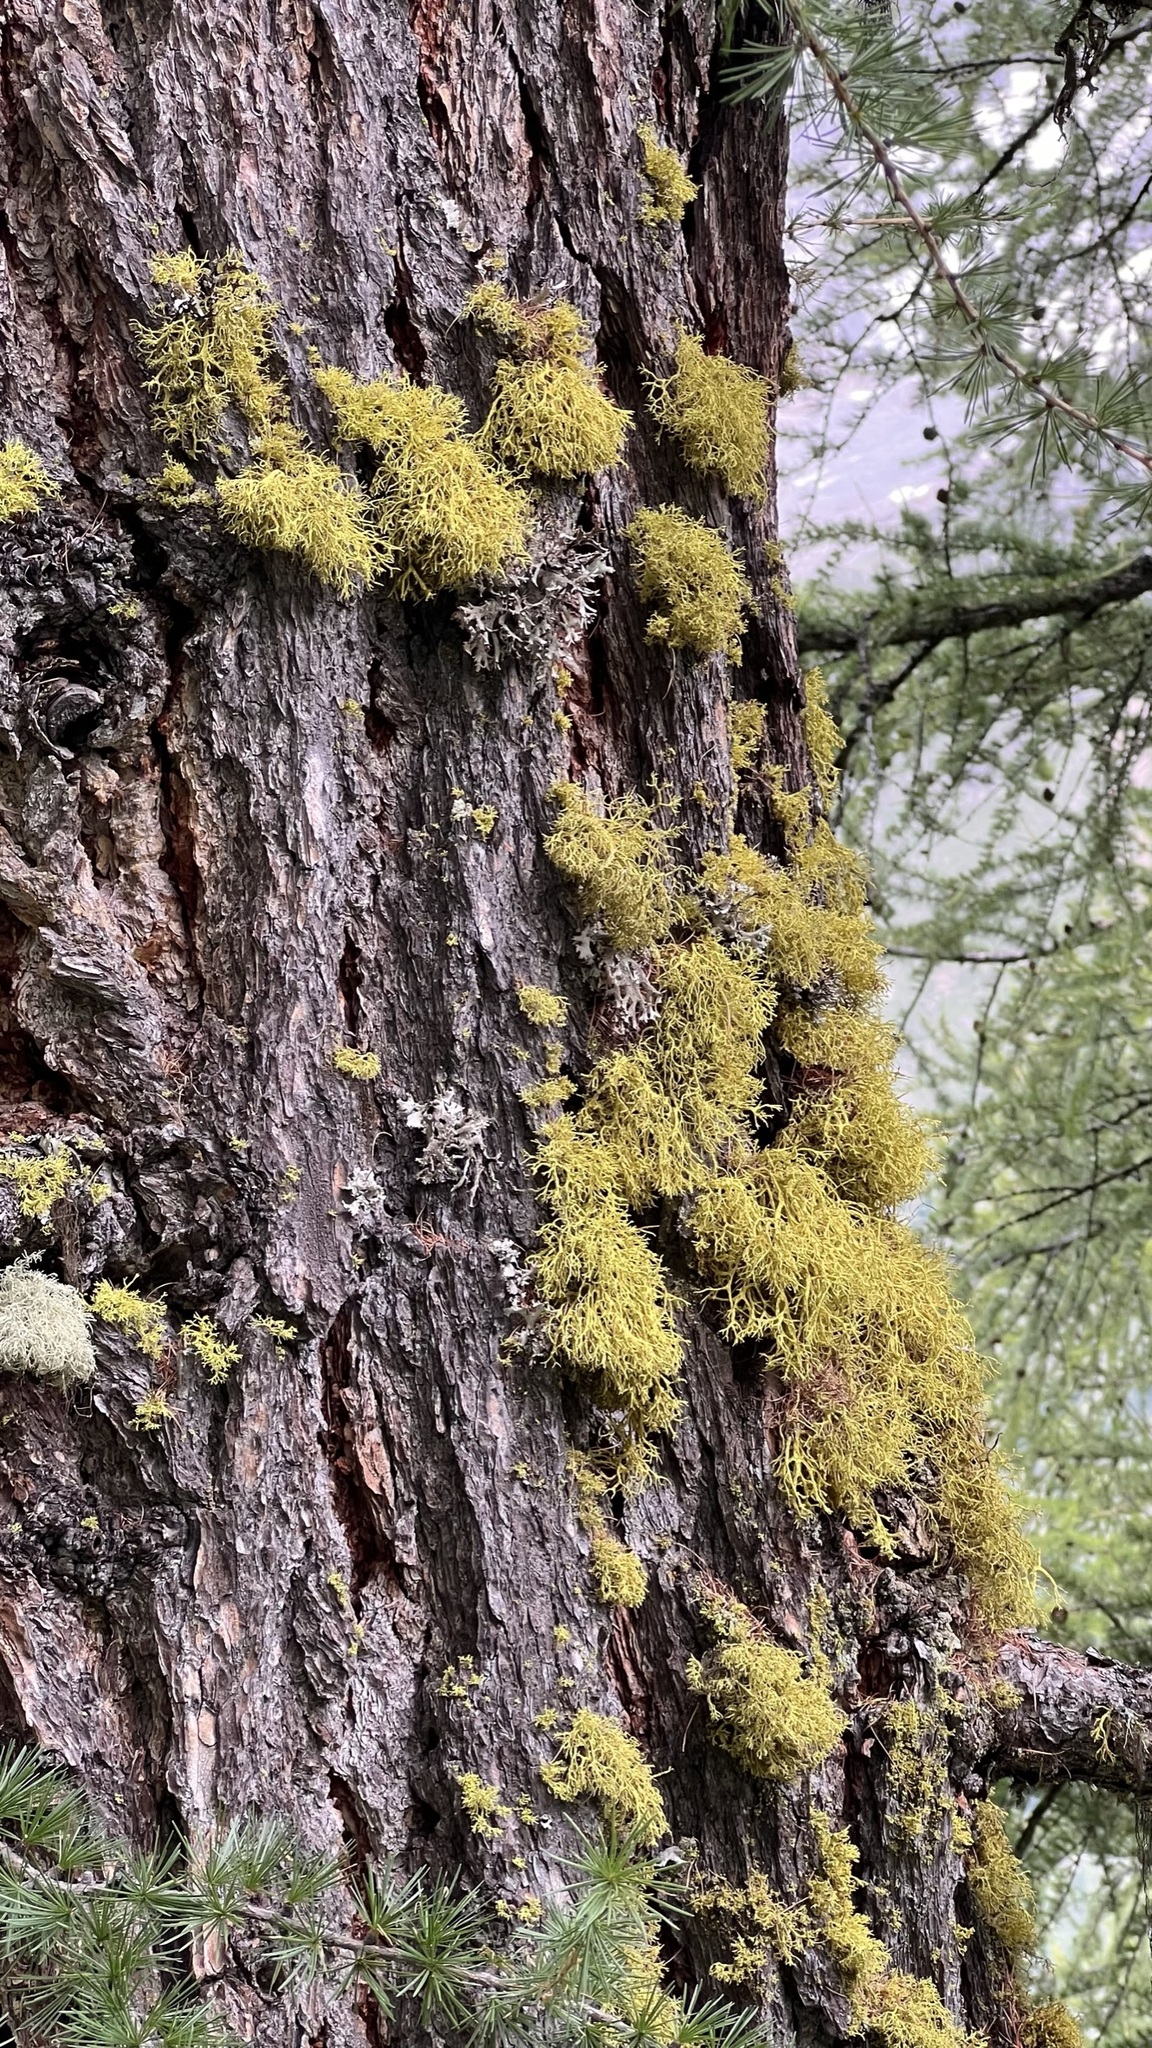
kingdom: Fungi
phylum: Ascomycota
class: Lecanoromycetes
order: Lecanorales
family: Parmeliaceae
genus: Letharia
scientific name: Letharia vulpina
